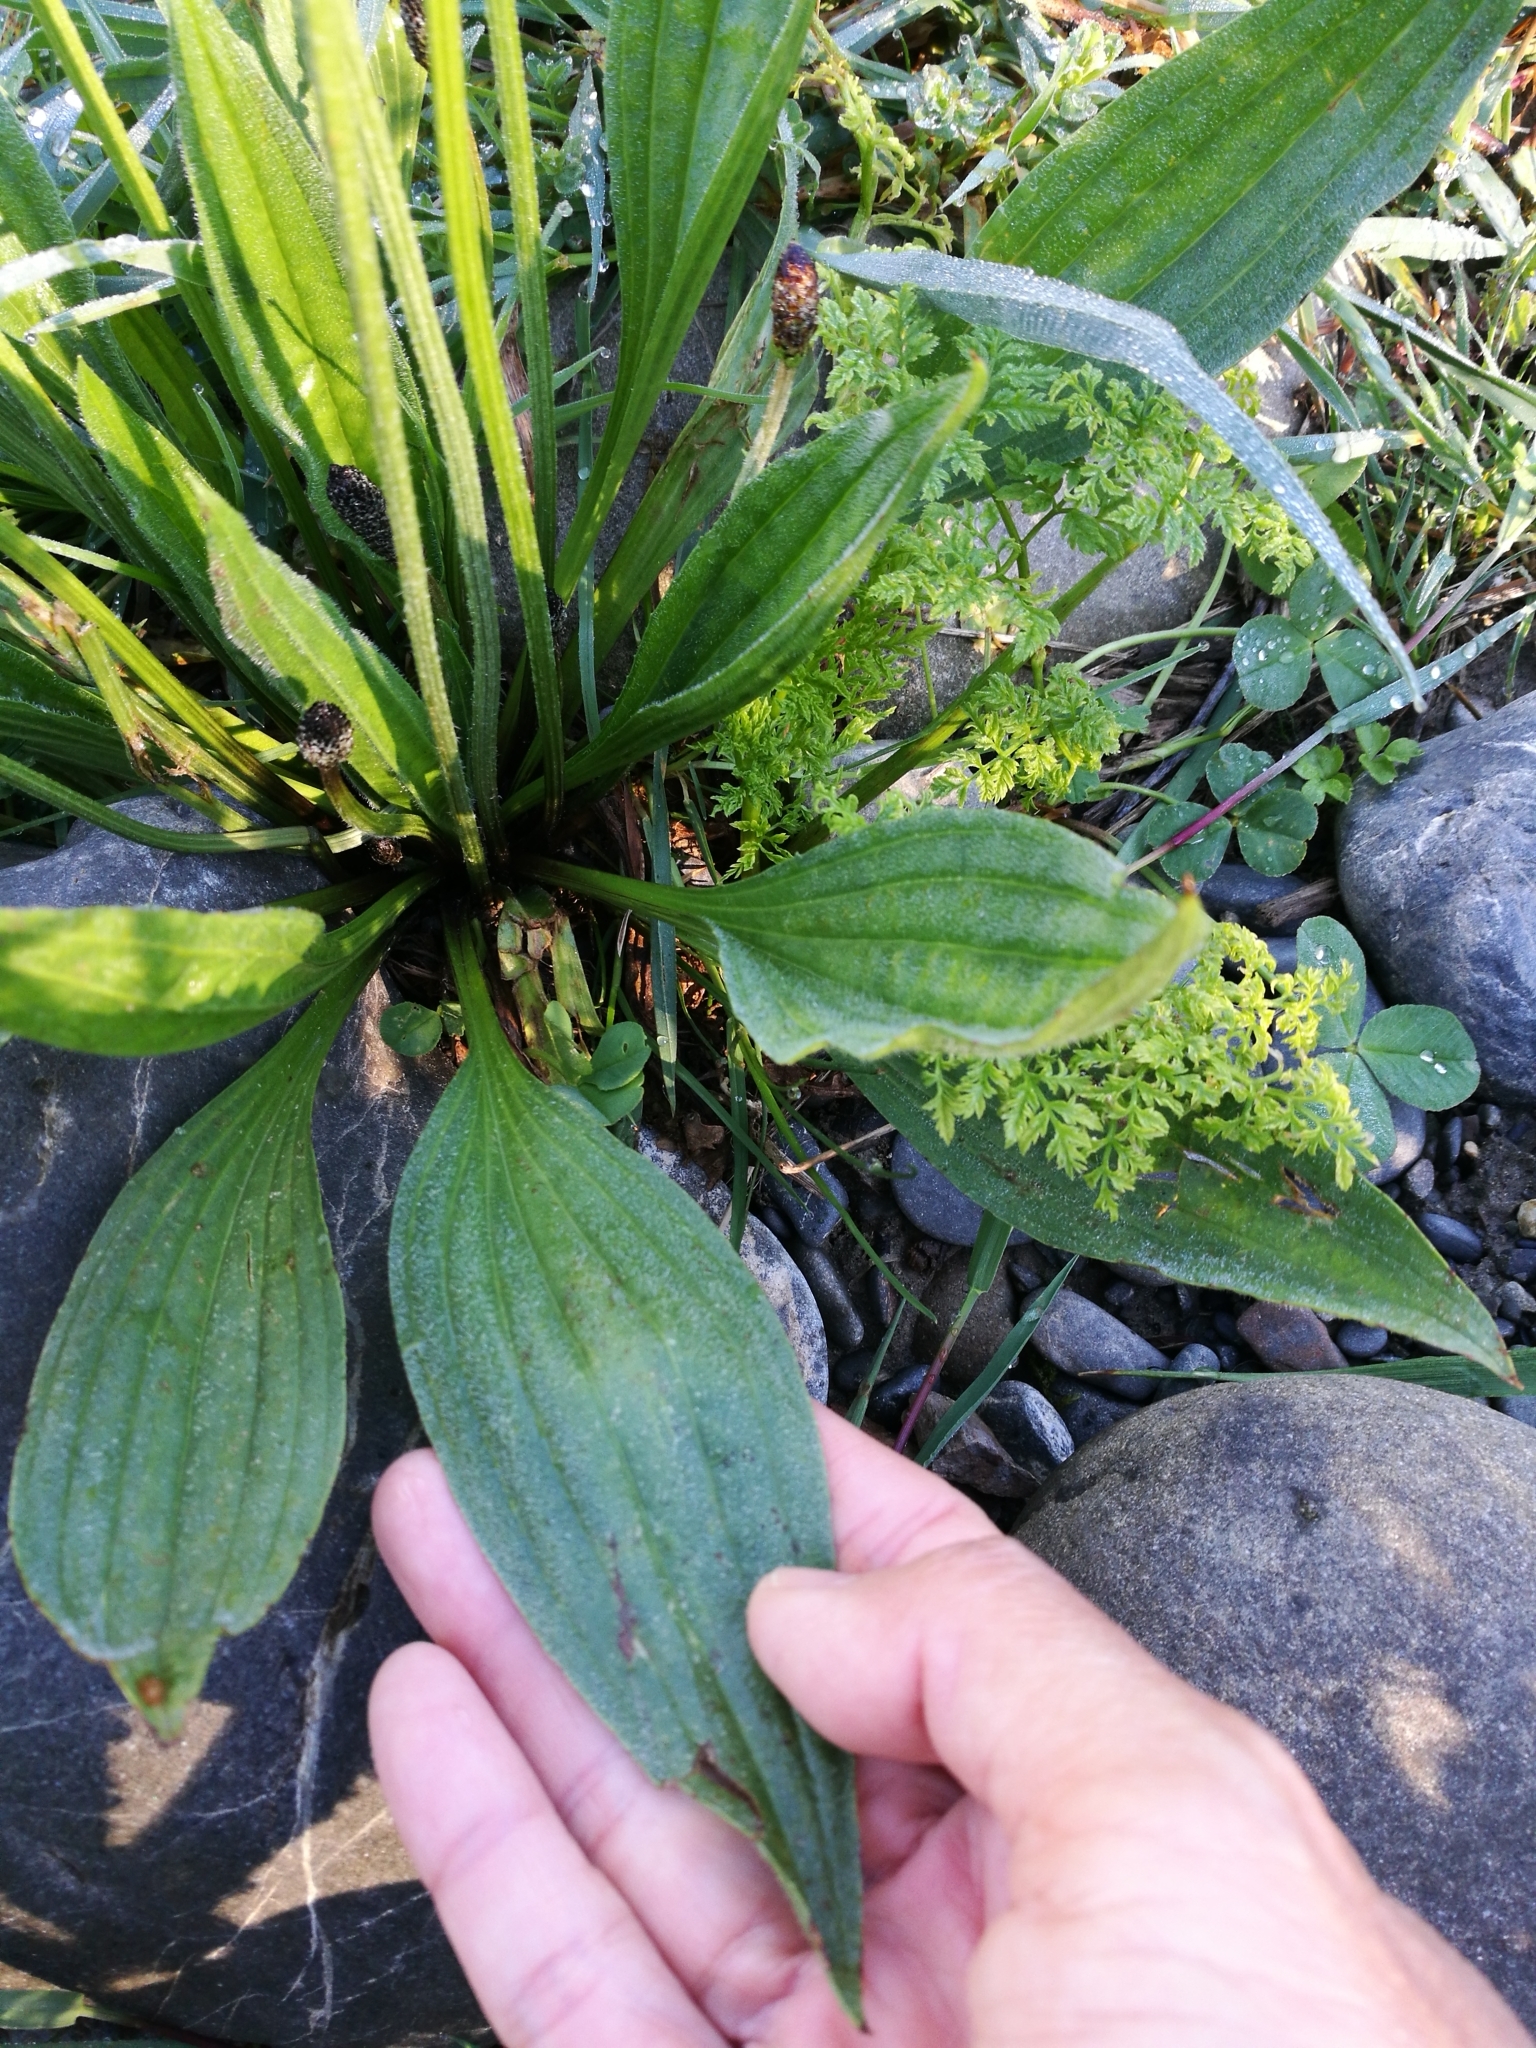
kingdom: Plantae
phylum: Tracheophyta
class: Magnoliopsida
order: Lamiales
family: Plantaginaceae
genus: Plantago
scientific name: Plantago lanceolata
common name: Ribwort plantain
